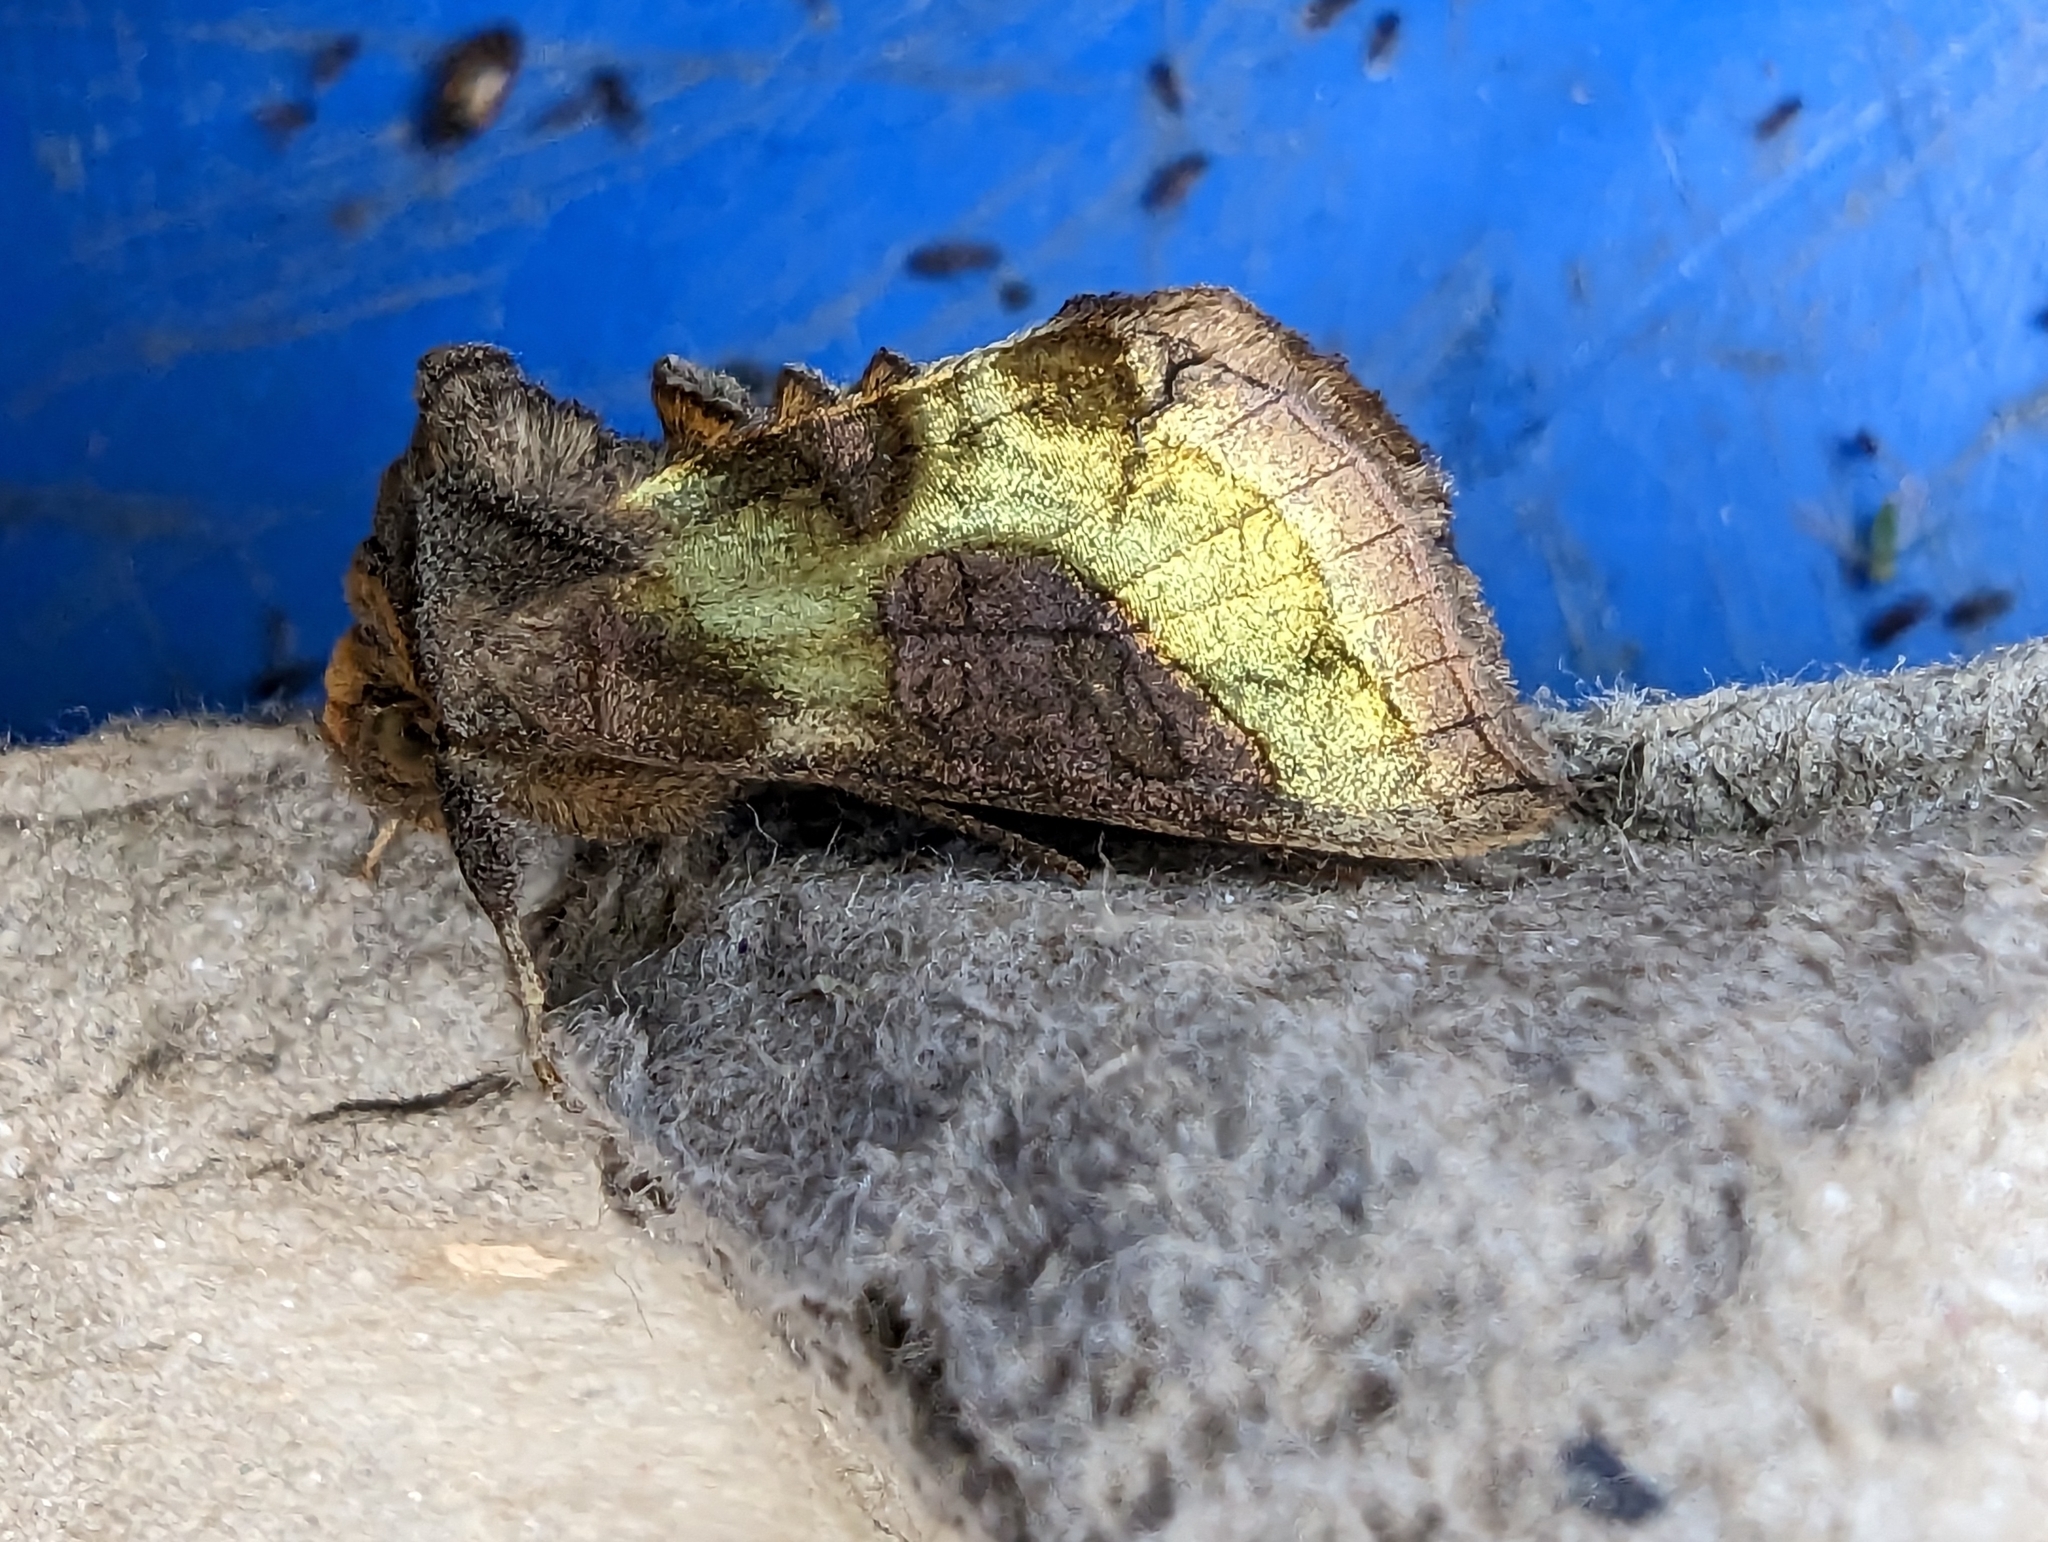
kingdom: Animalia
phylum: Arthropoda
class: Insecta
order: Lepidoptera
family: Noctuidae
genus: Diachrysia
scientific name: Diachrysia chrysitis
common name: Burnished brass
